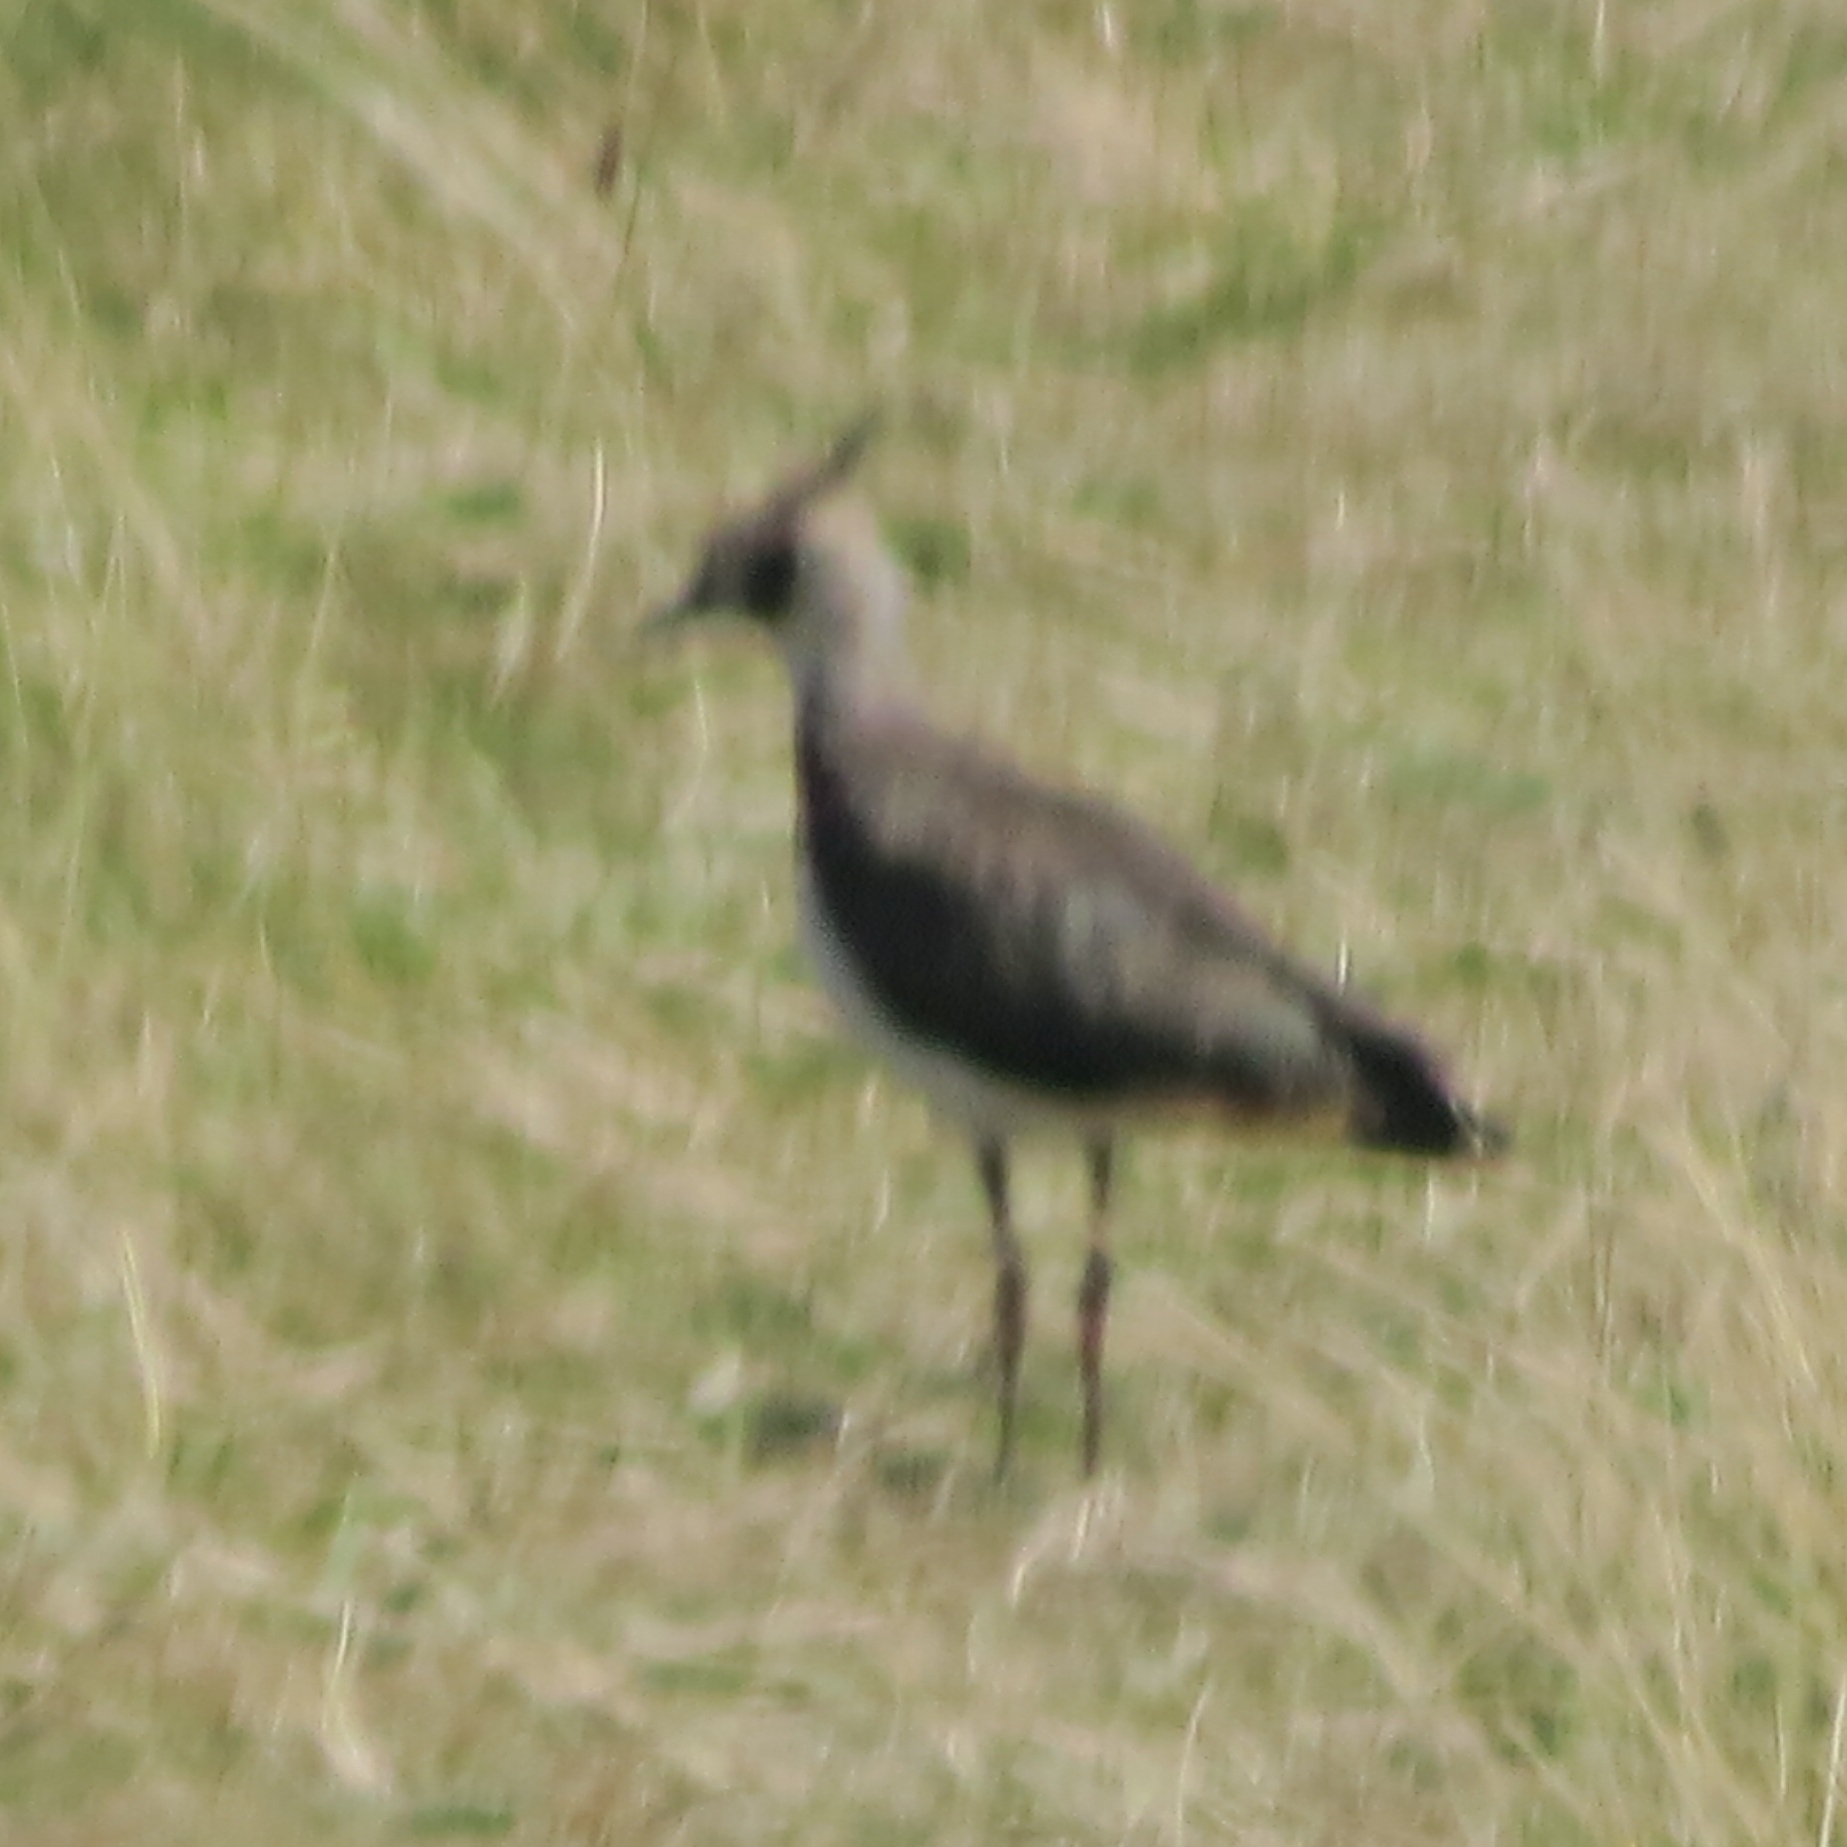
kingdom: Animalia
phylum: Chordata
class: Aves
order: Charadriiformes
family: Charadriidae
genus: Vanellus
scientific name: Vanellus vanellus
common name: Northern lapwing
